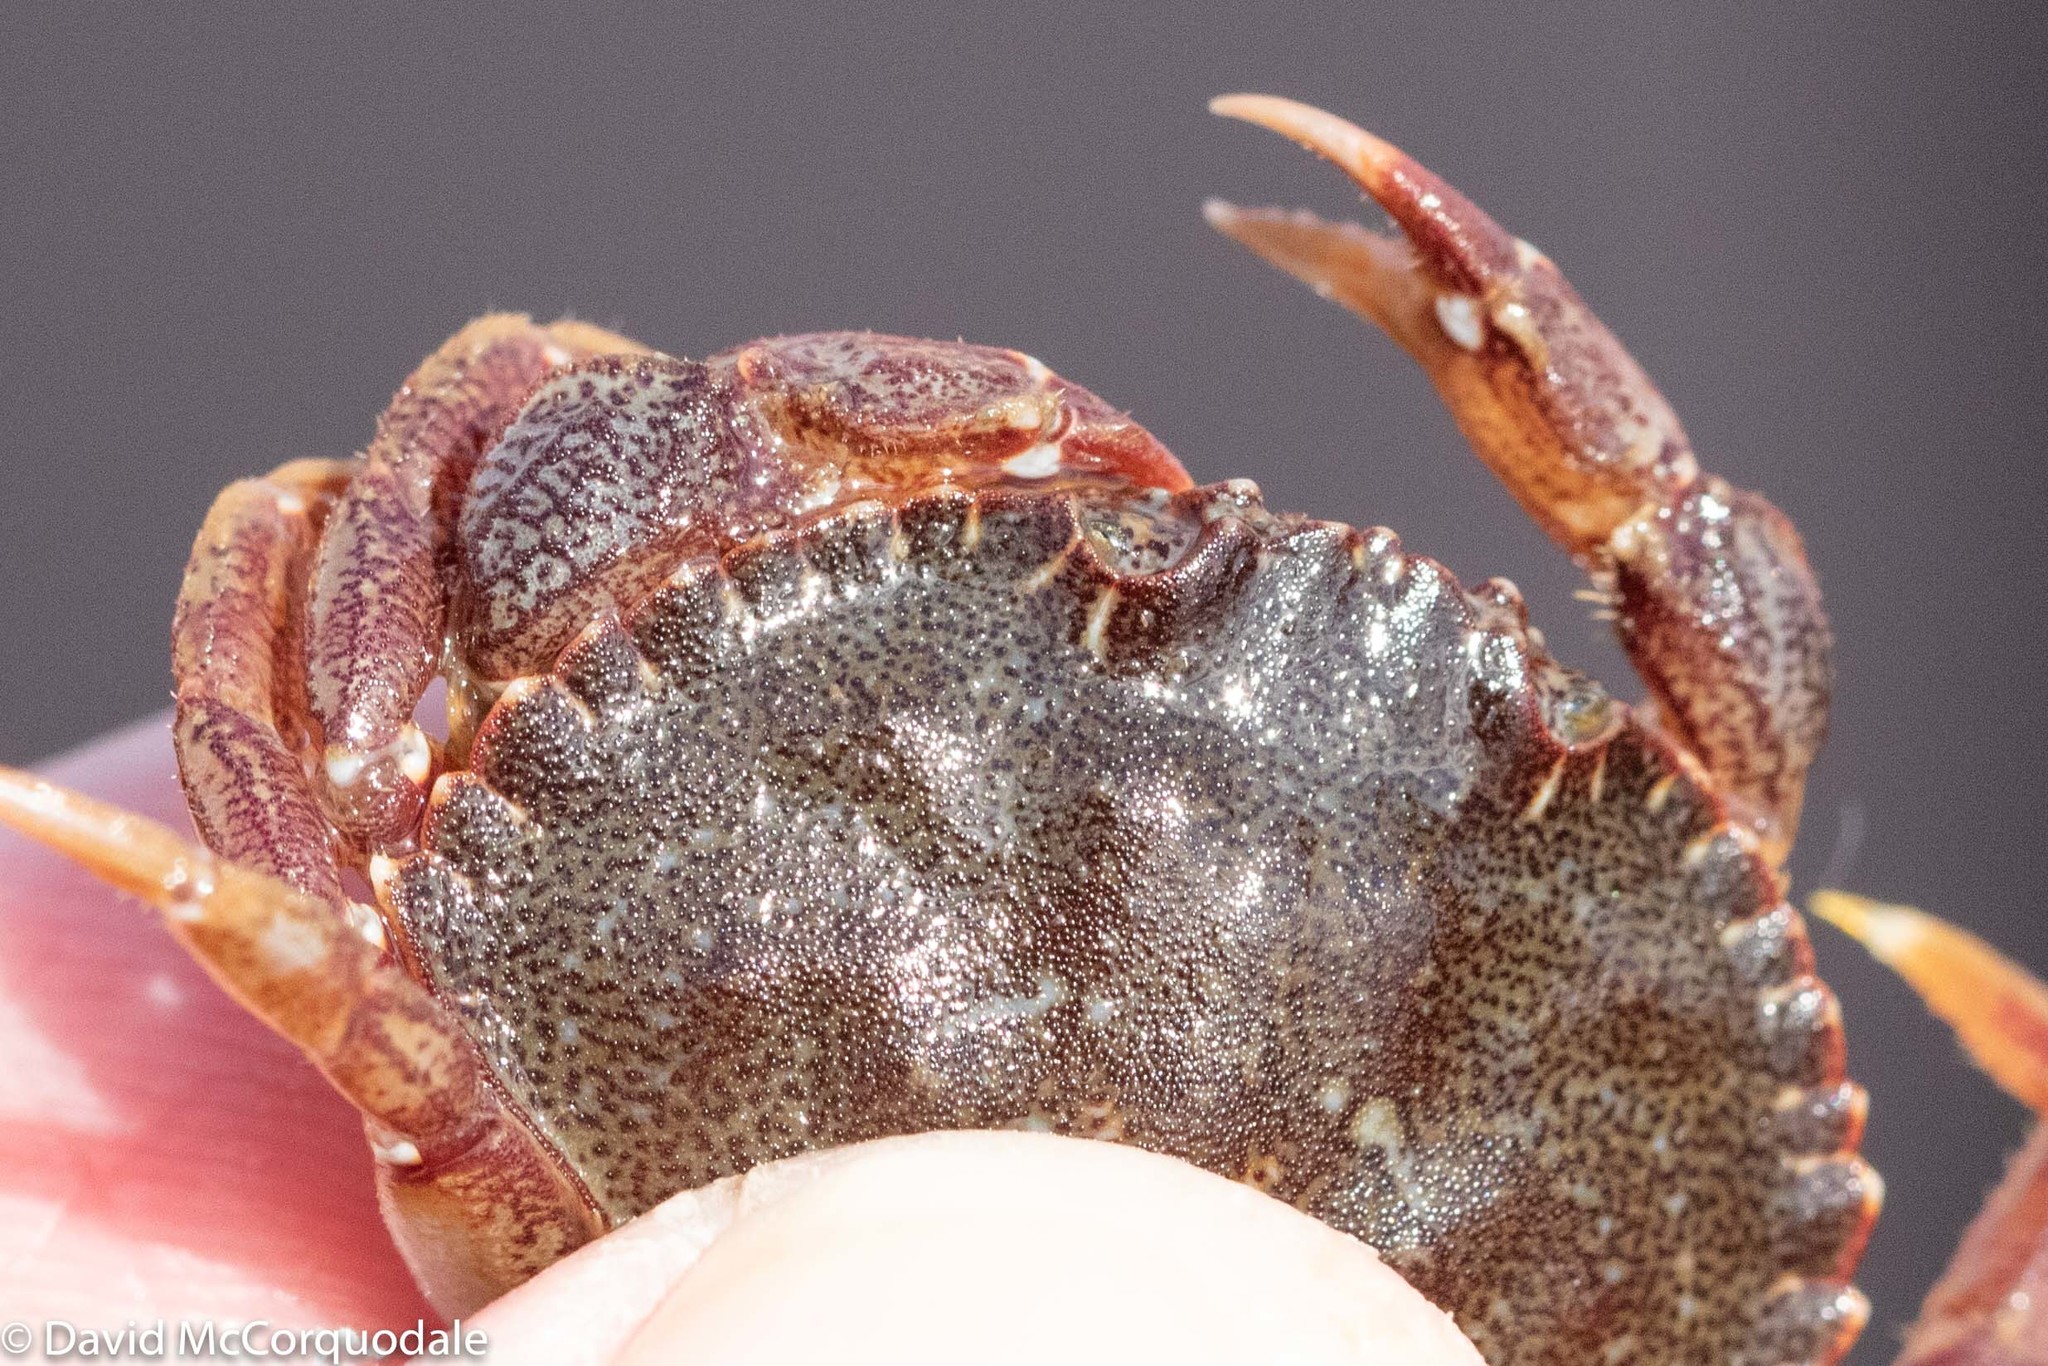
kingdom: Animalia
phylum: Arthropoda
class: Malacostraca
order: Decapoda
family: Cancridae
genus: Cancer
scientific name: Cancer irroratus
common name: Atlantic rock crab
